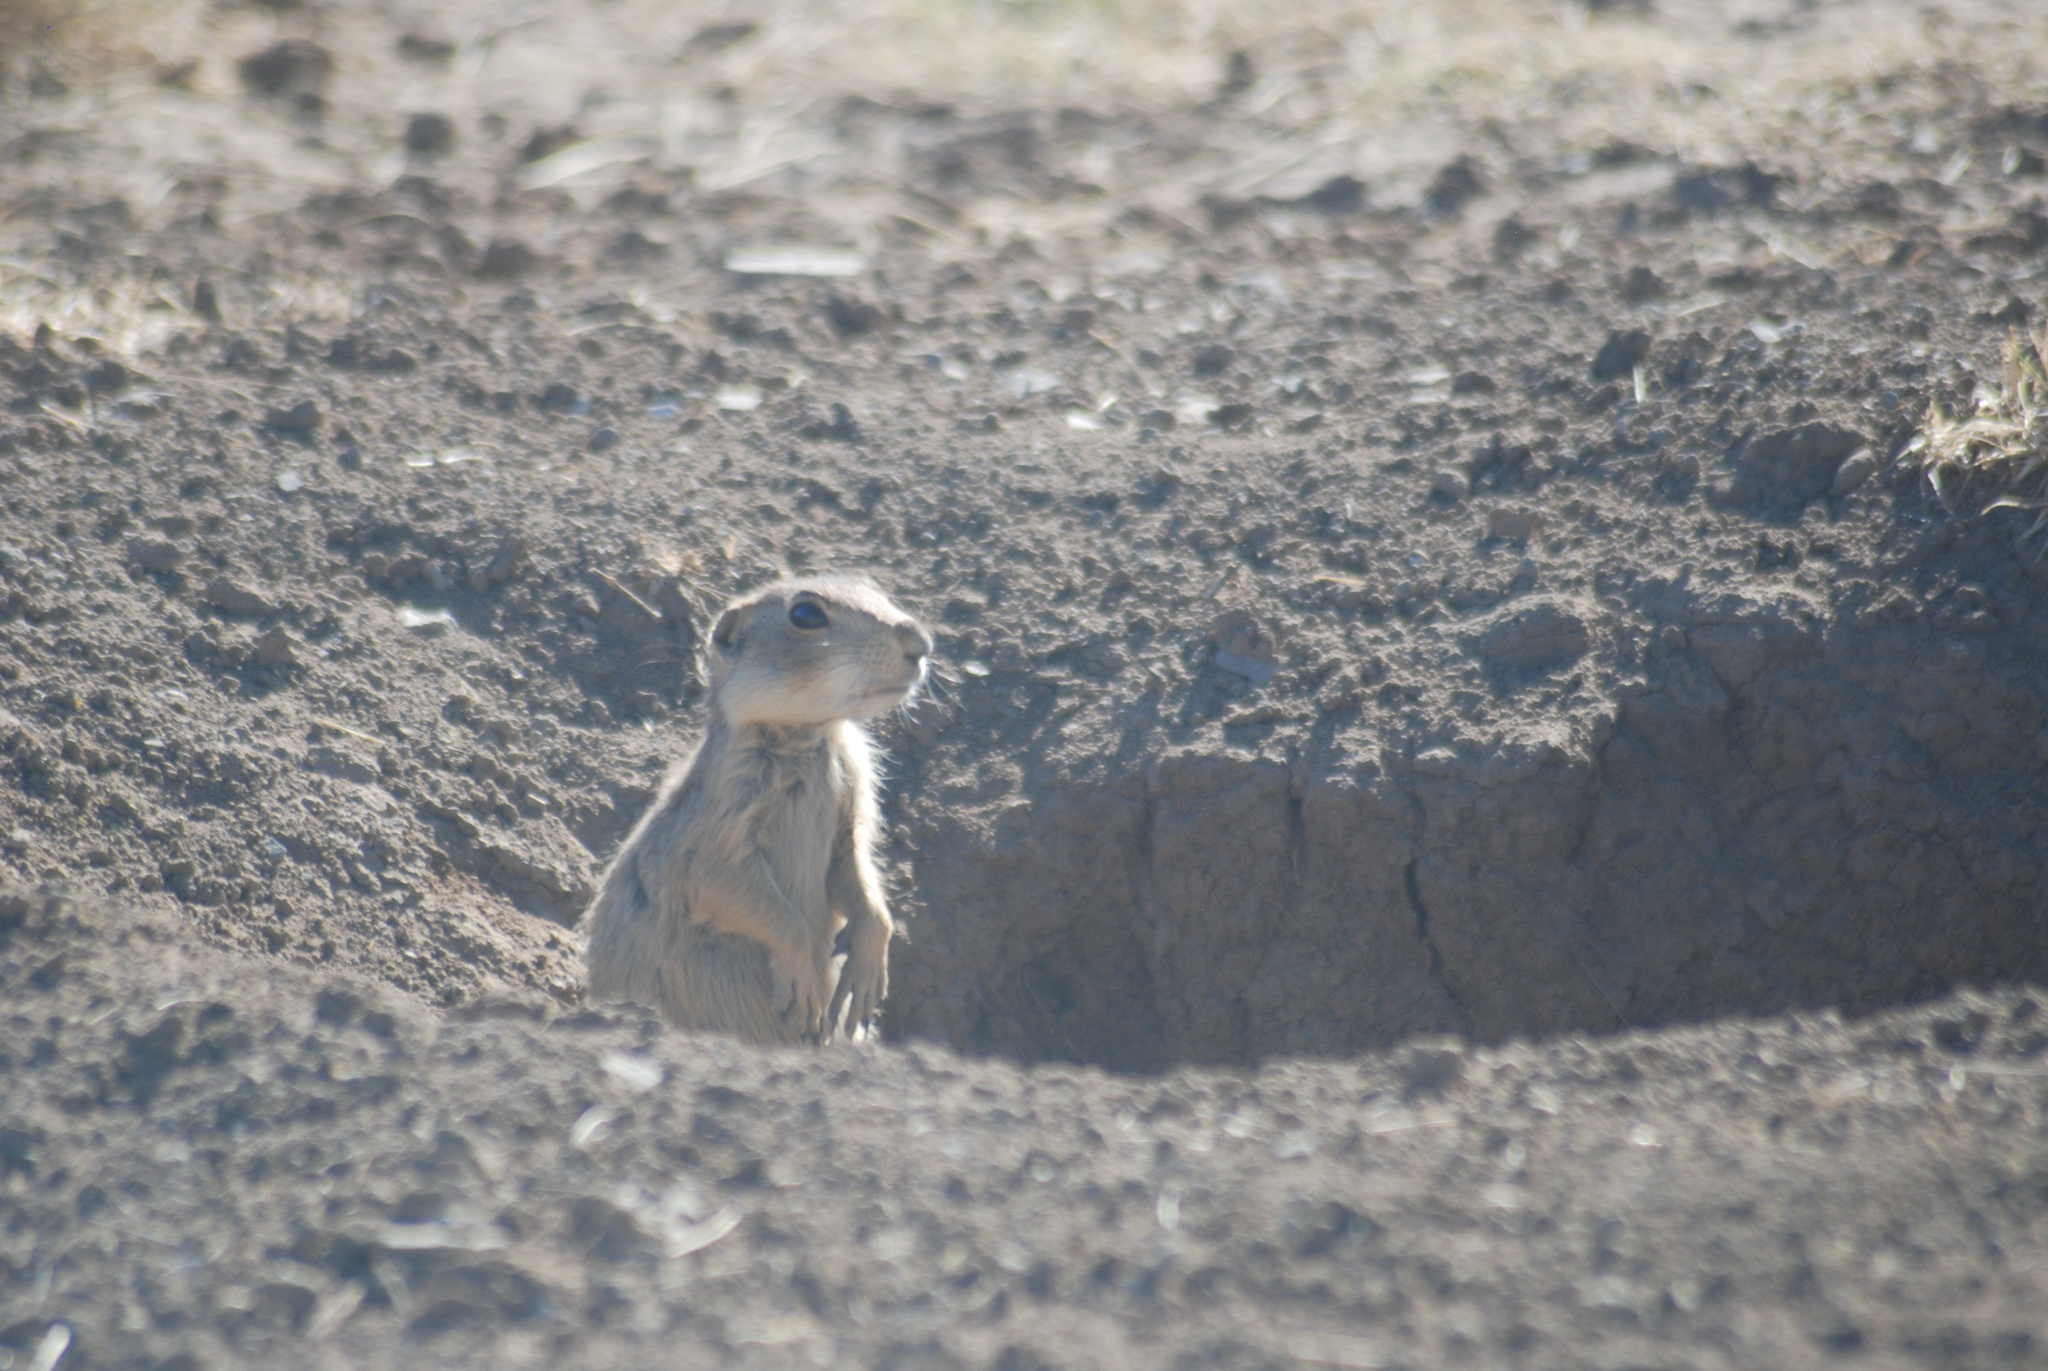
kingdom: Animalia
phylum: Chordata
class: Mammalia
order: Rodentia
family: Sciuridae
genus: Cynomys
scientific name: Cynomys gunnisoni
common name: Gunnison's prairie dog
